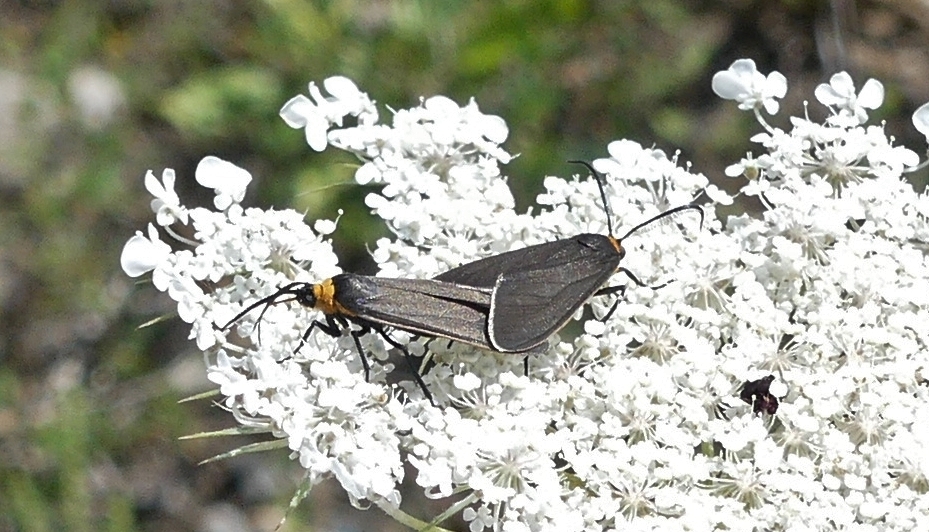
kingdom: Animalia
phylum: Arthropoda
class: Insecta
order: Lepidoptera
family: Erebidae
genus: Cisseps
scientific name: Cisseps fulvicollis
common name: Yellow-collared scape moth
